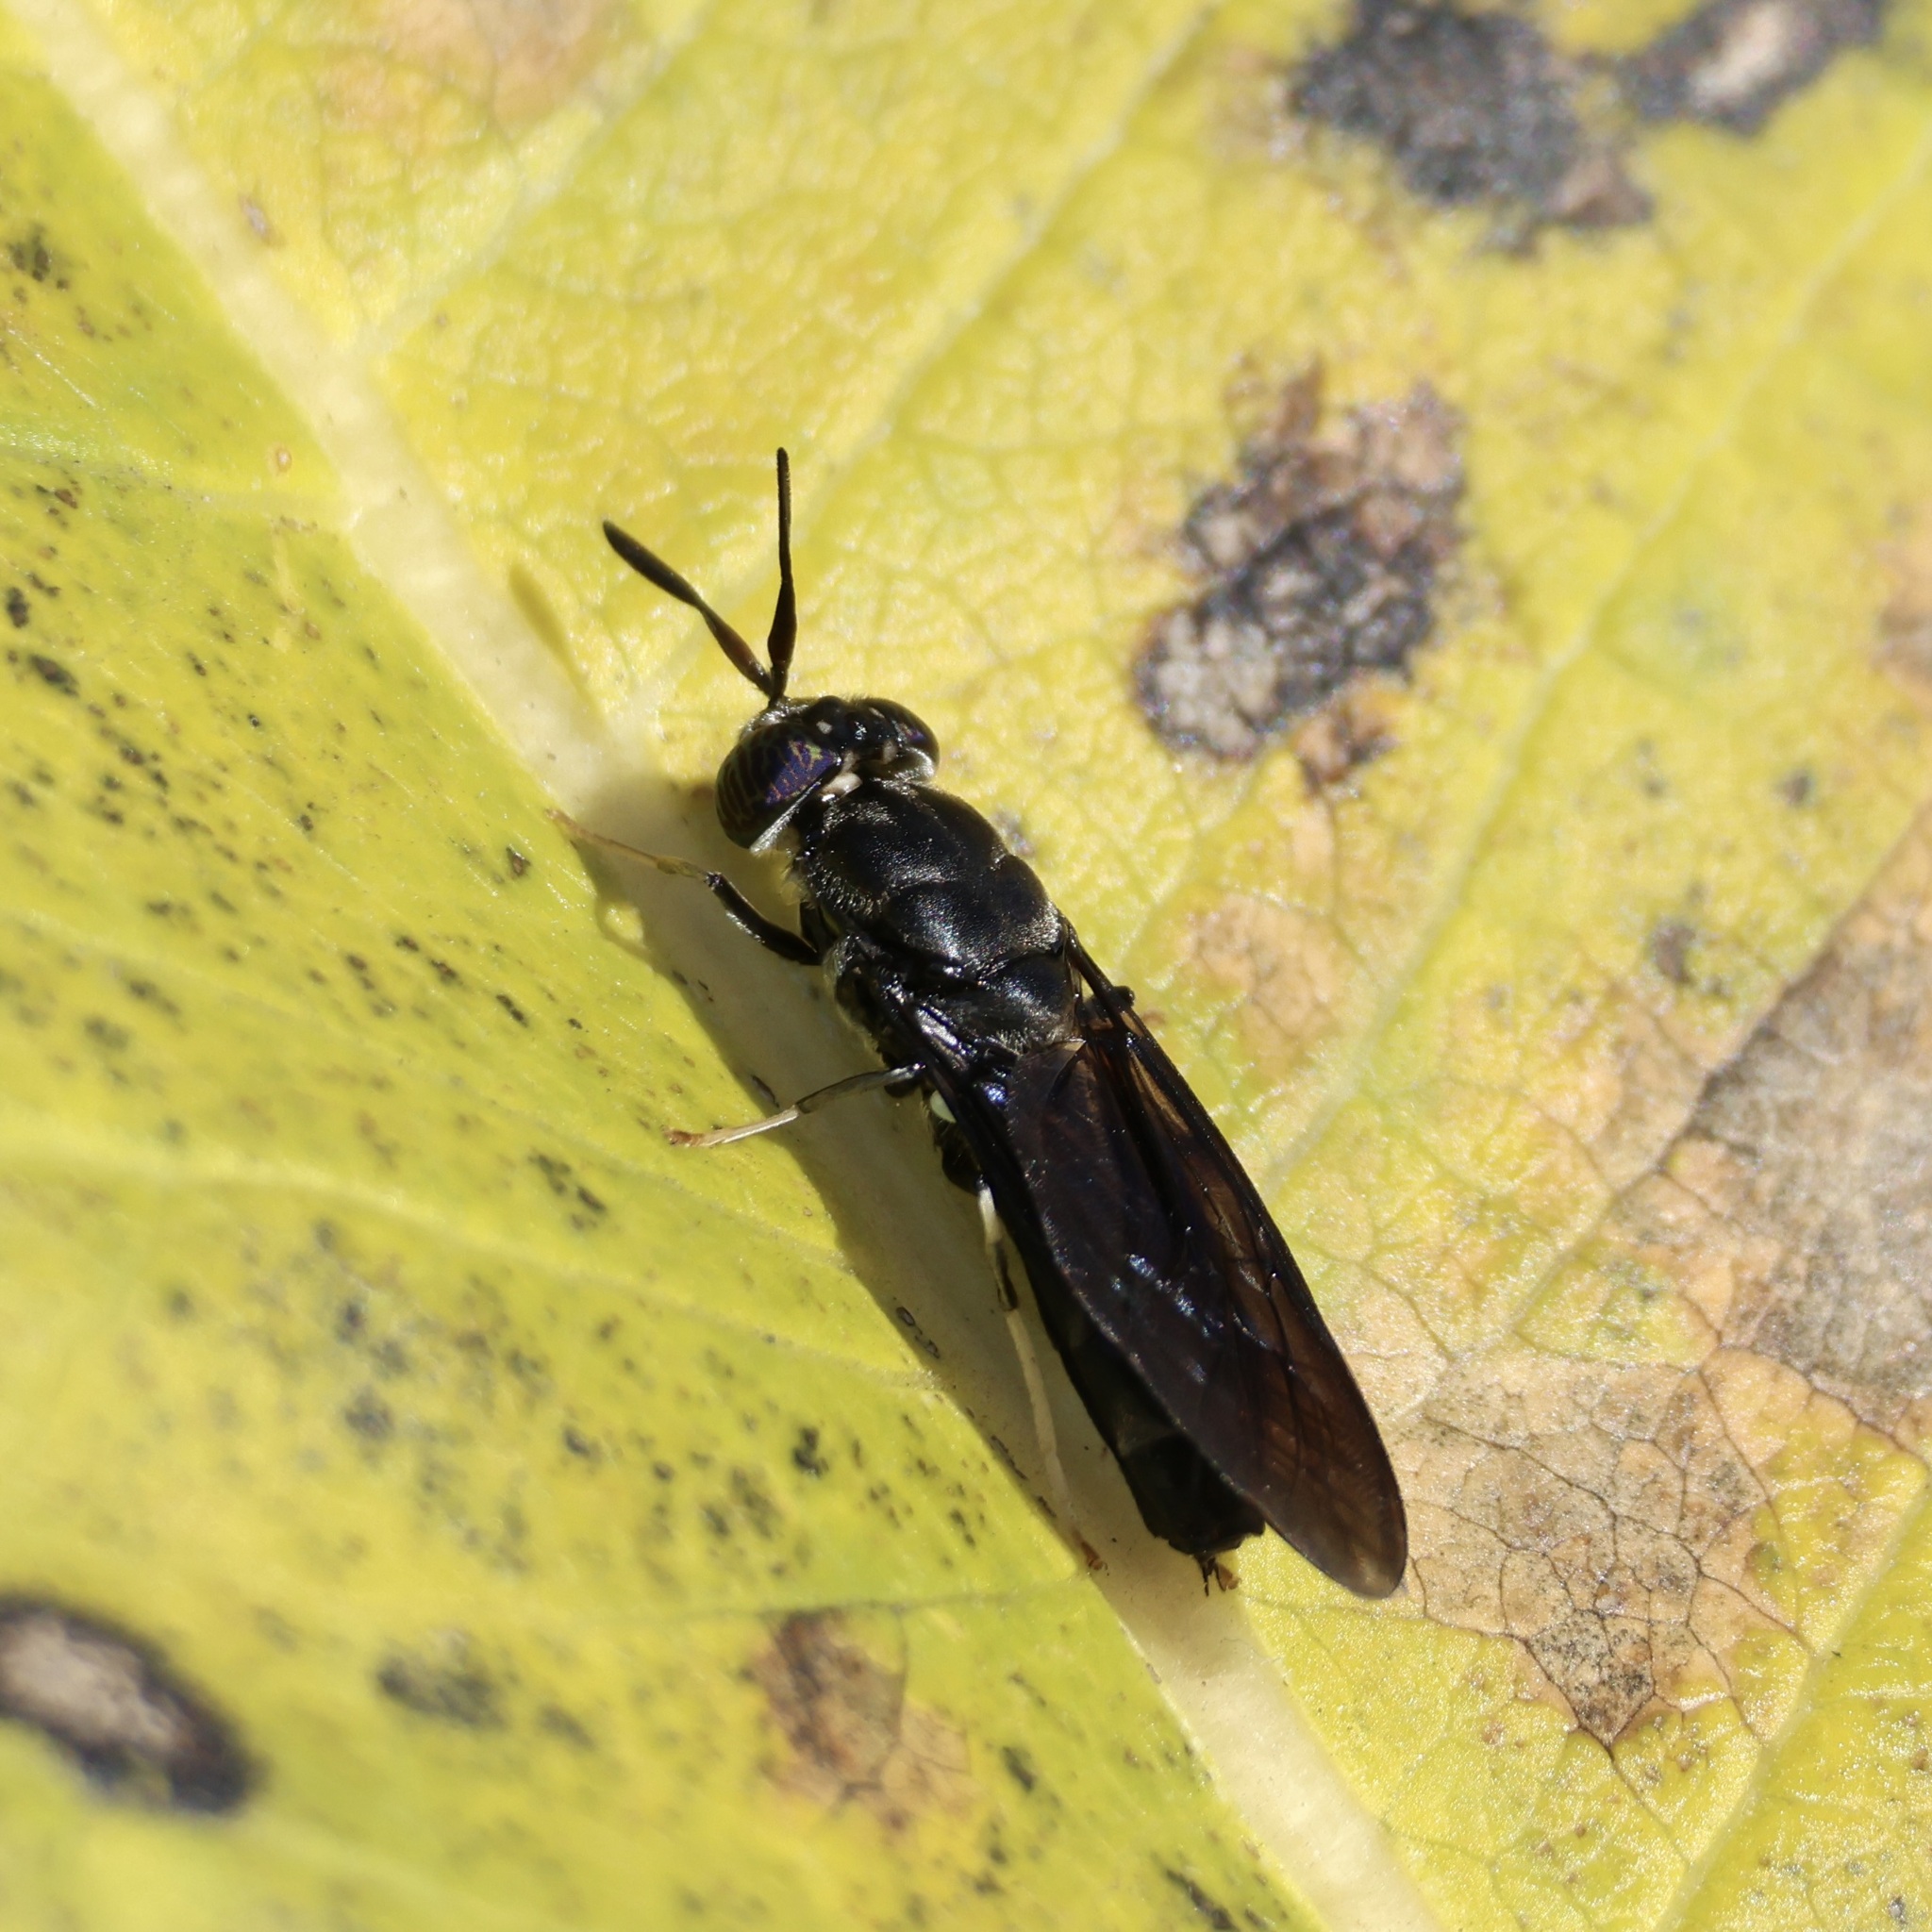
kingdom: Animalia
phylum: Arthropoda
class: Insecta
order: Diptera
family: Stratiomyidae
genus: Hermetia
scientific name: Hermetia illucens
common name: Black soldier fly
